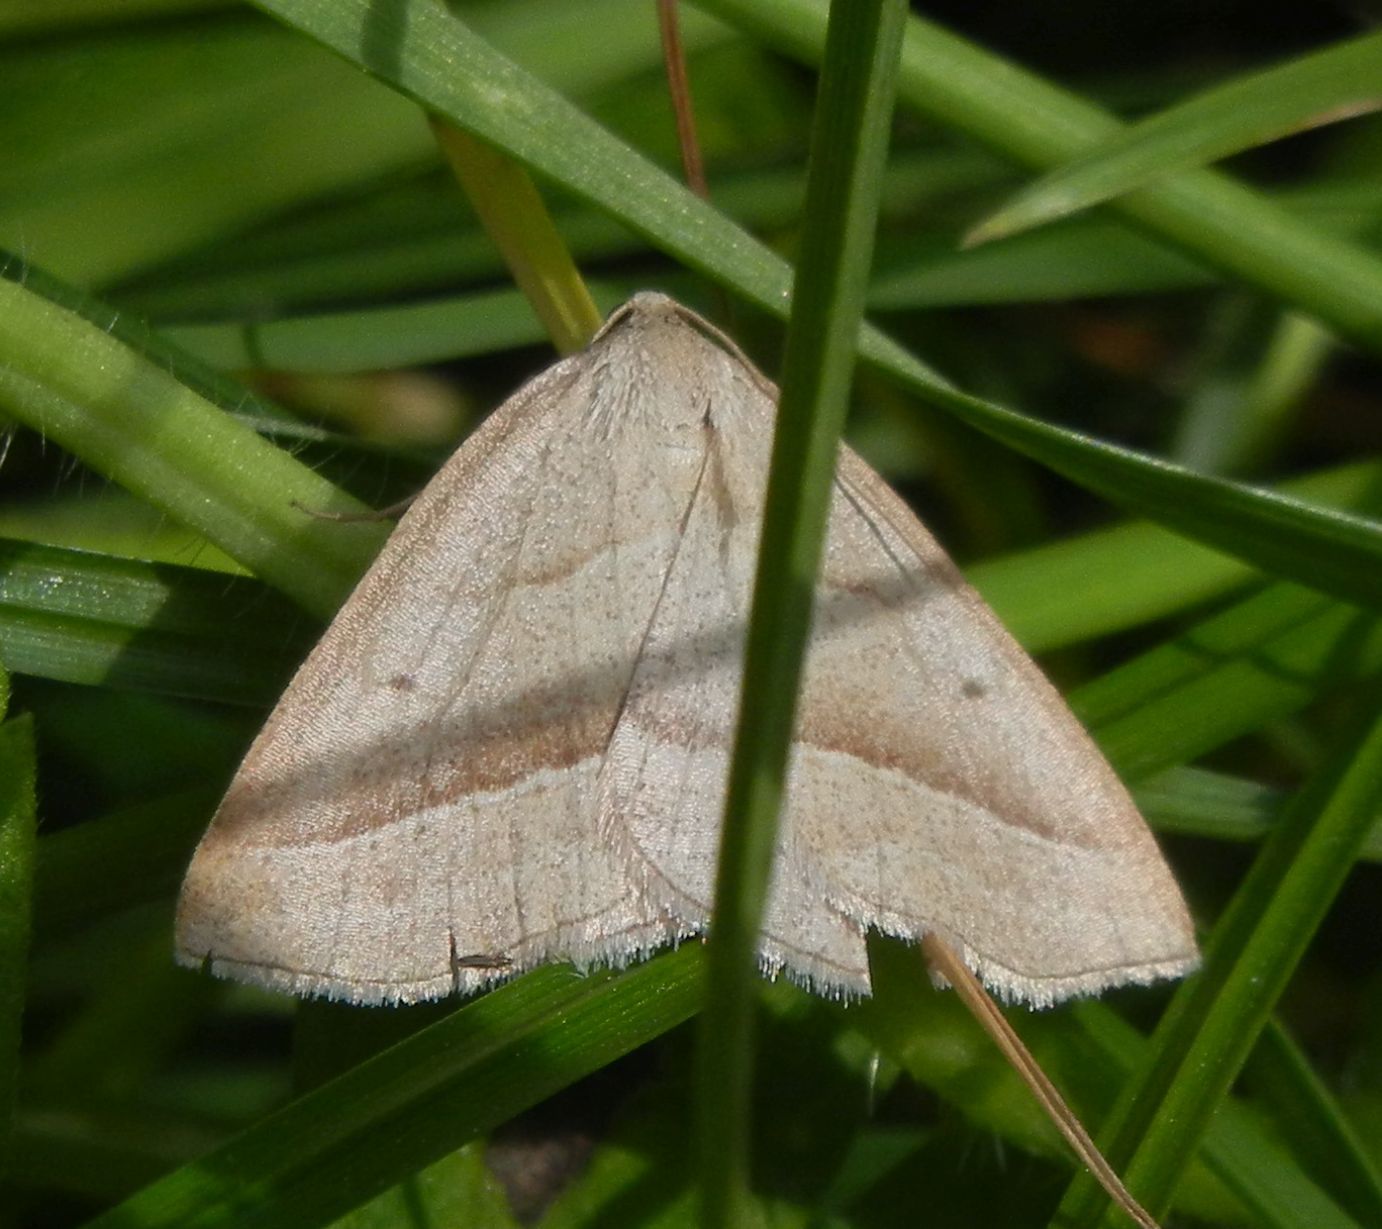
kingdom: Animalia
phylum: Arthropoda
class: Insecta
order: Lepidoptera
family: Pterophoridae
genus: Pterophorus
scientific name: Pterophorus Petrophora chlorosata
